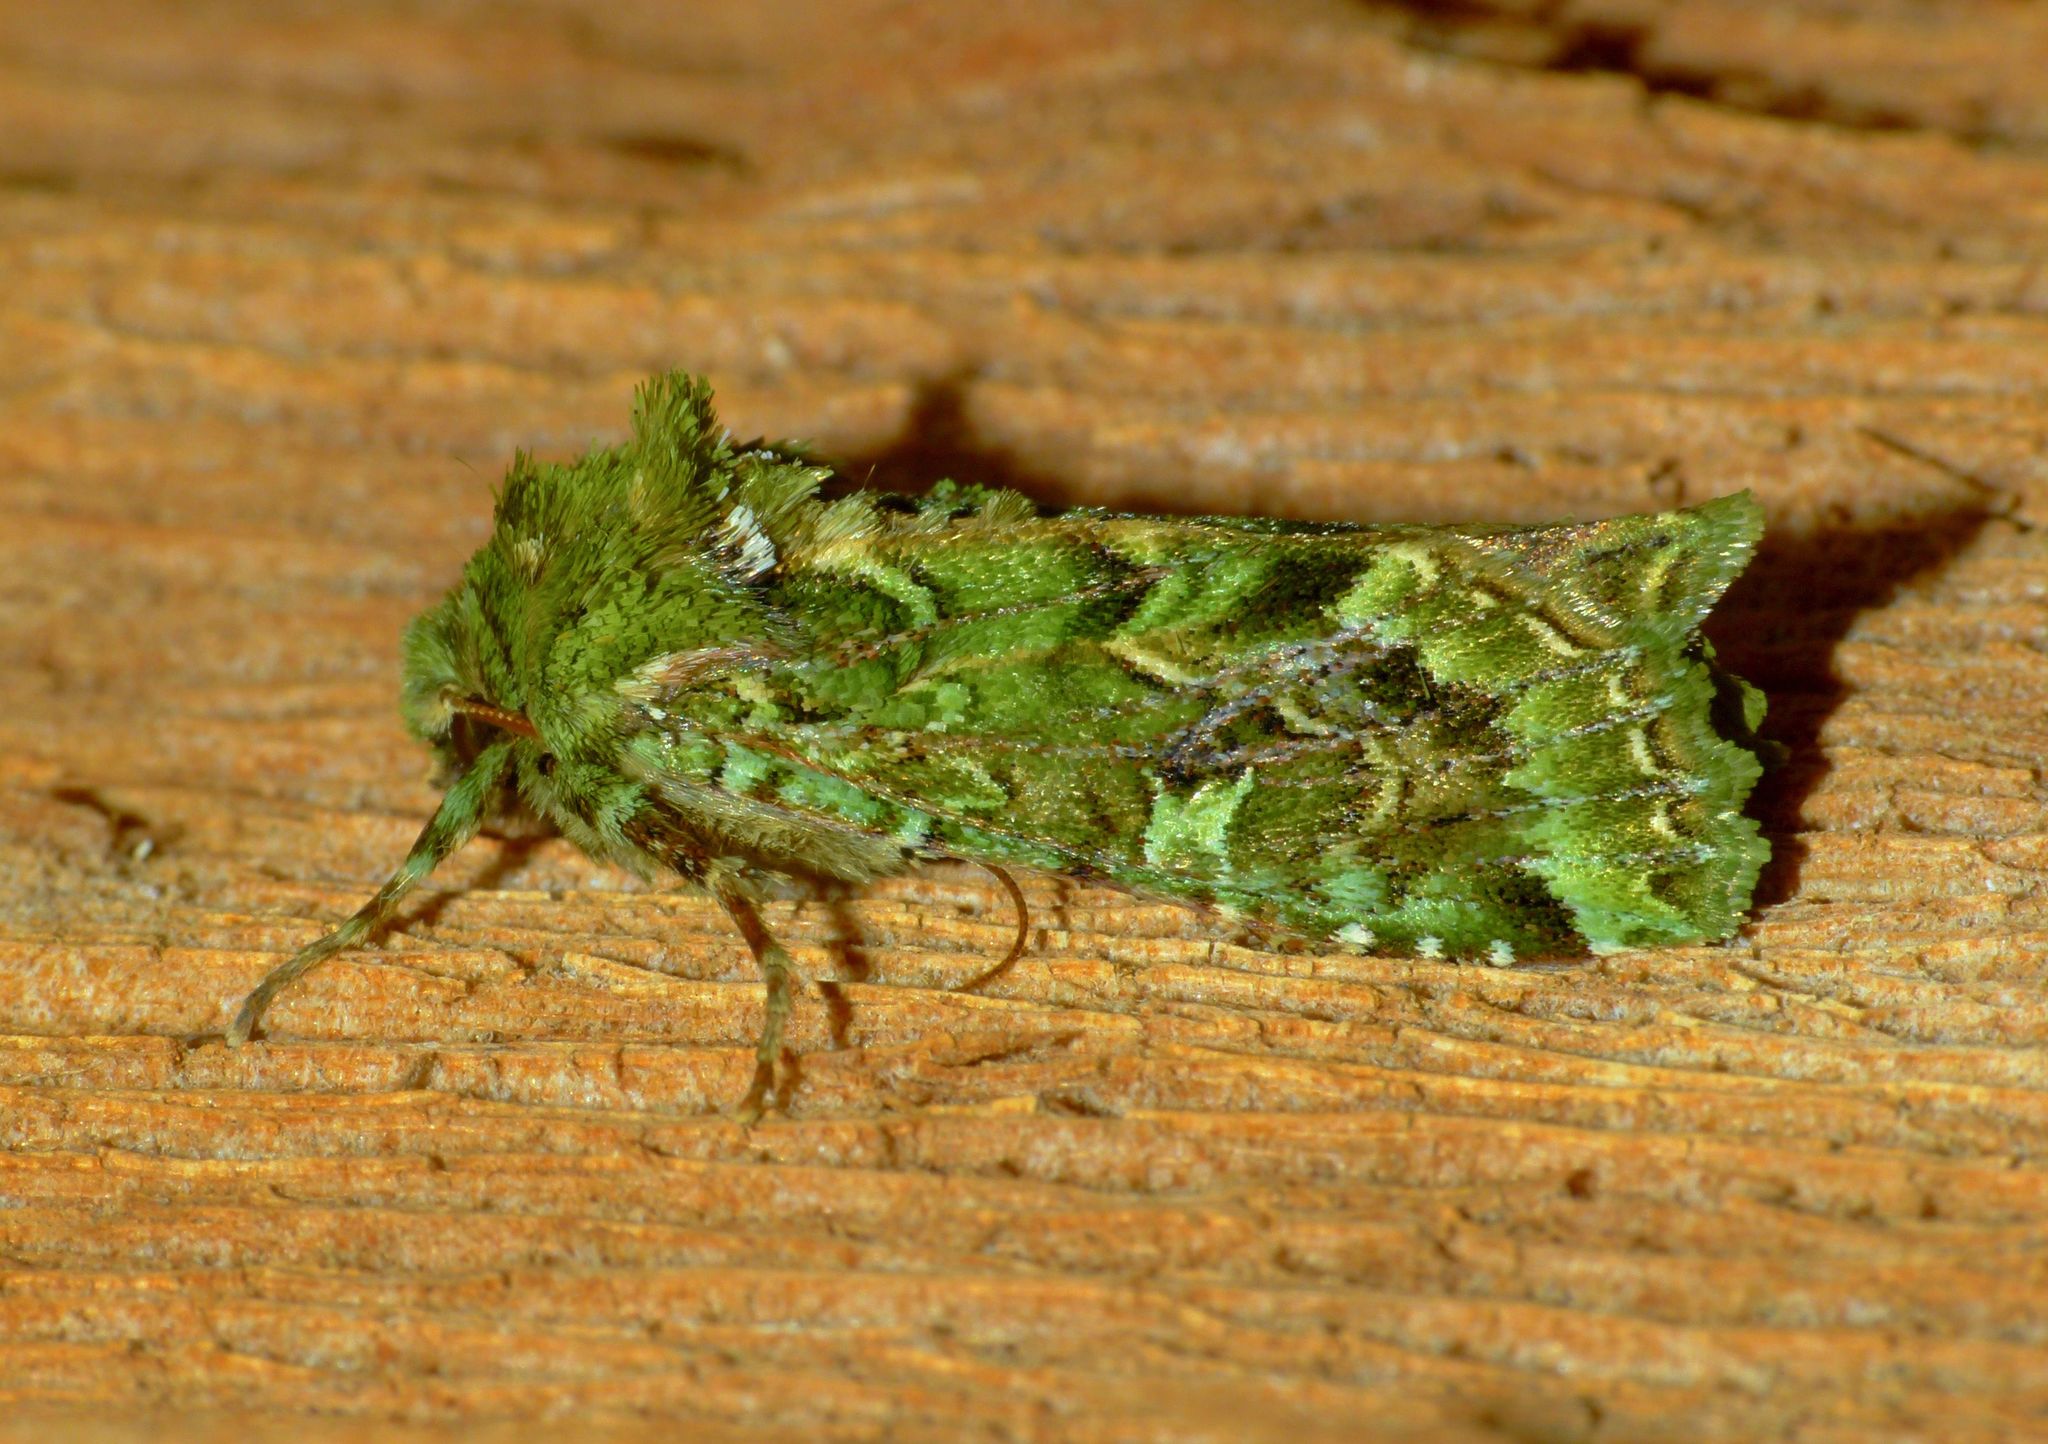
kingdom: Animalia
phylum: Arthropoda
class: Insecta
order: Lepidoptera
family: Noctuidae
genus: Feredayia
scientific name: Feredayia grammosa
